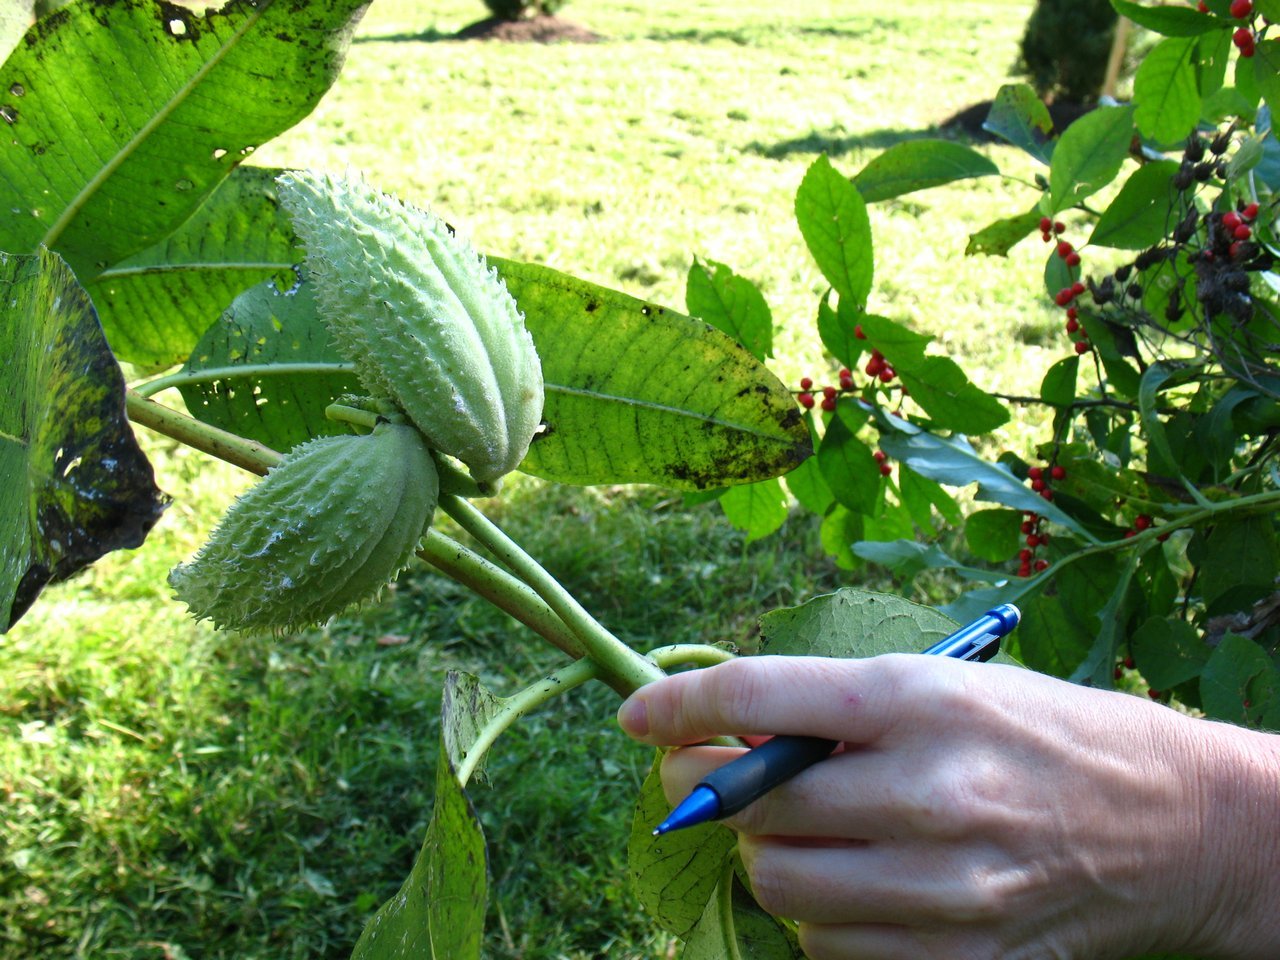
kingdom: Plantae
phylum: Tracheophyta
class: Magnoliopsida
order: Gentianales
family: Apocynaceae
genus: Asclepias
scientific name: Asclepias syriaca
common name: Common milkweed
